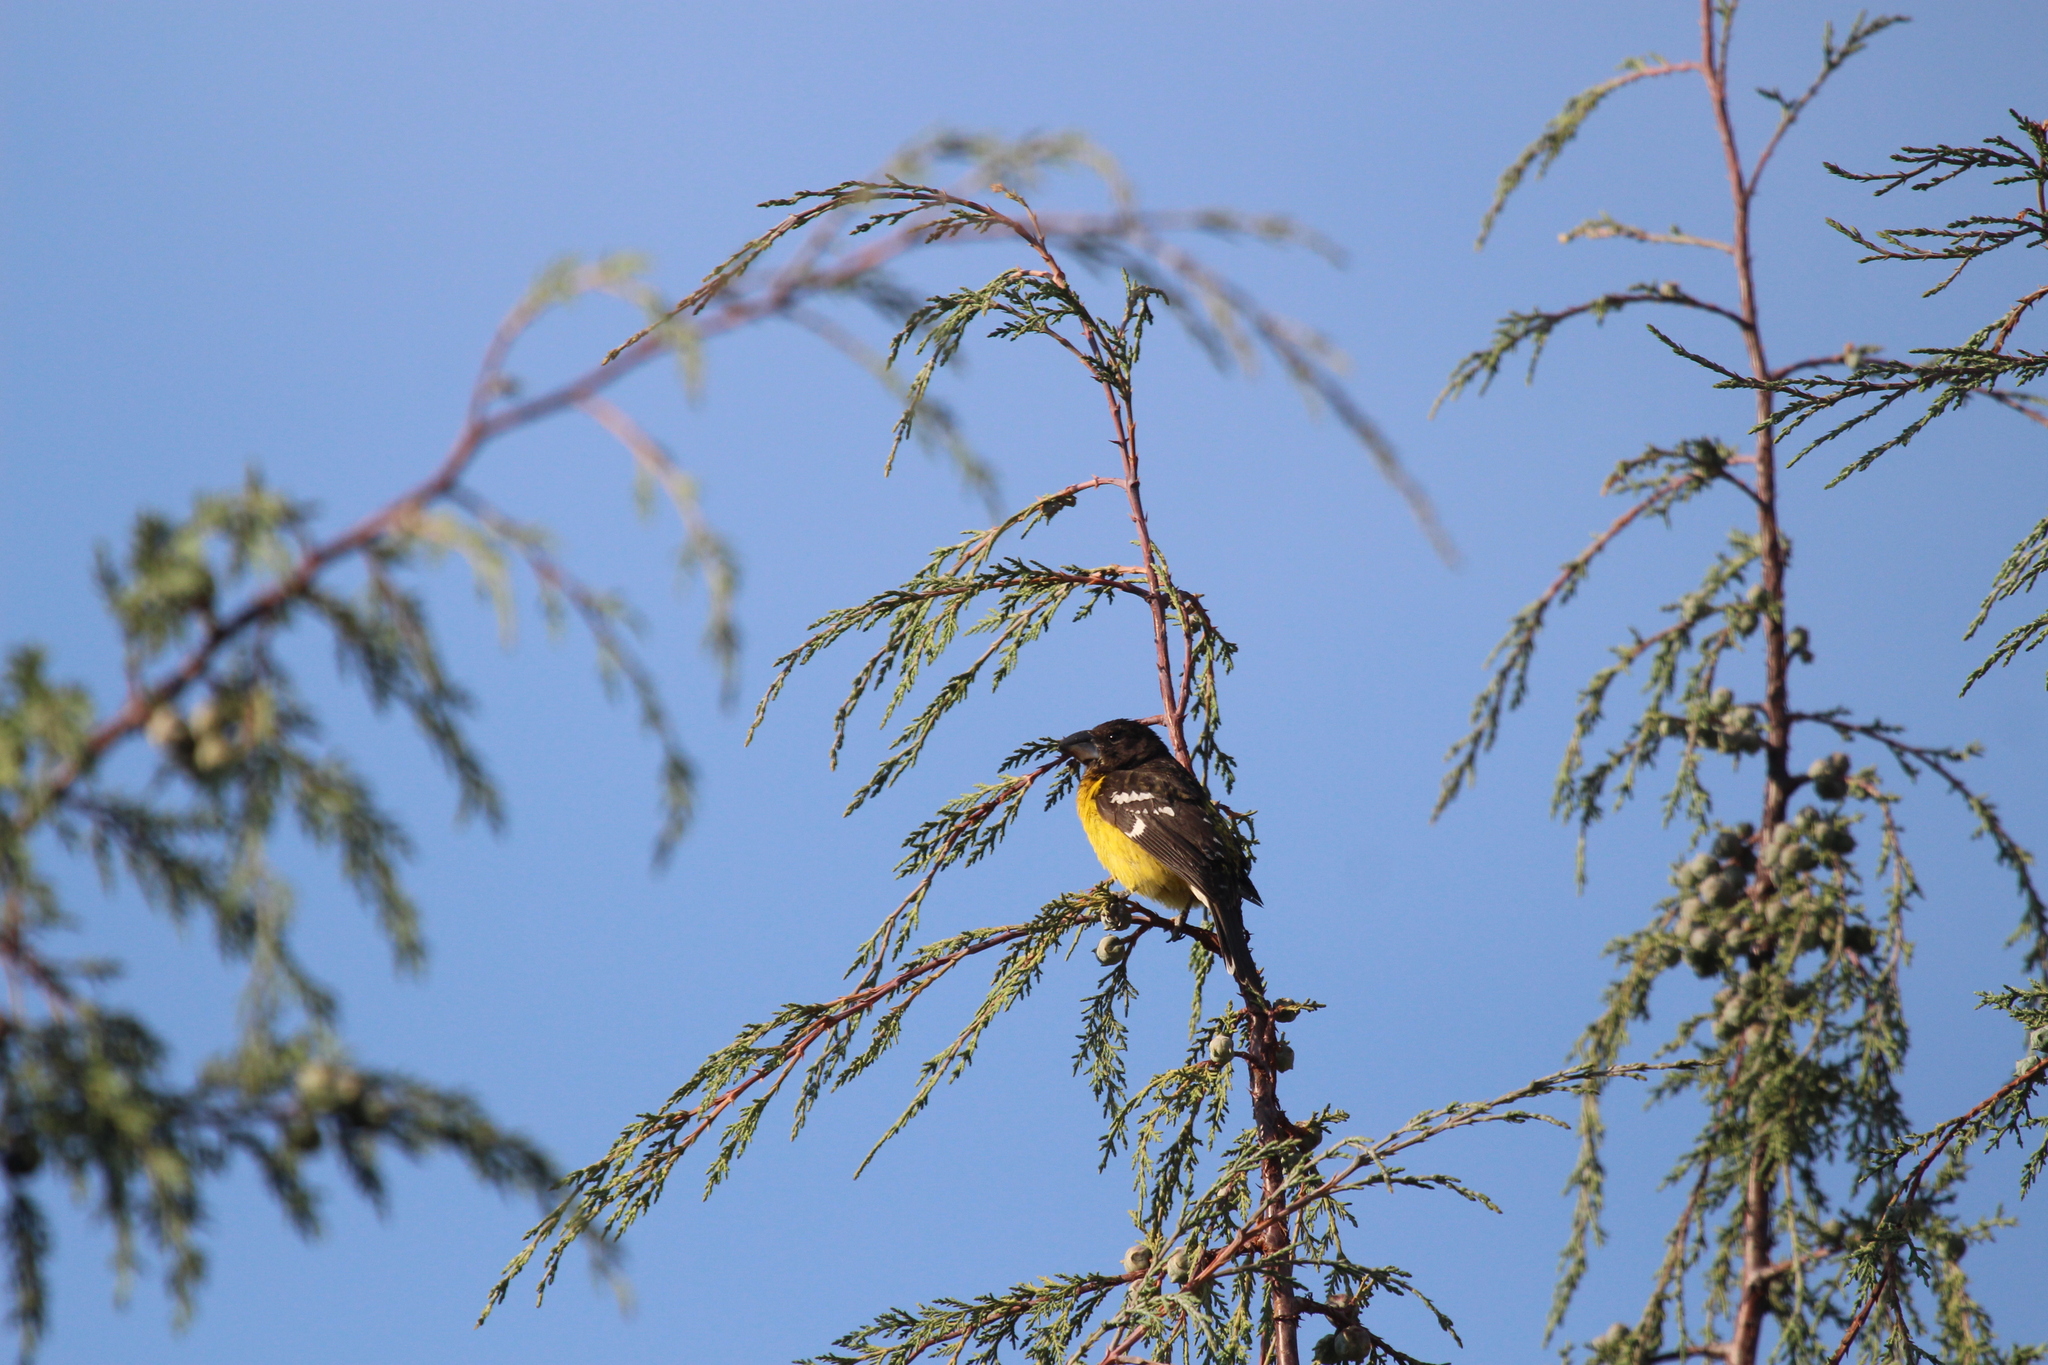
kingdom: Animalia
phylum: Chordata
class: Aves
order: Passeriformes
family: Cardinalidae
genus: Pheucticus
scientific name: Pheucticus aureoventris
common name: Black-backed grosbeak
